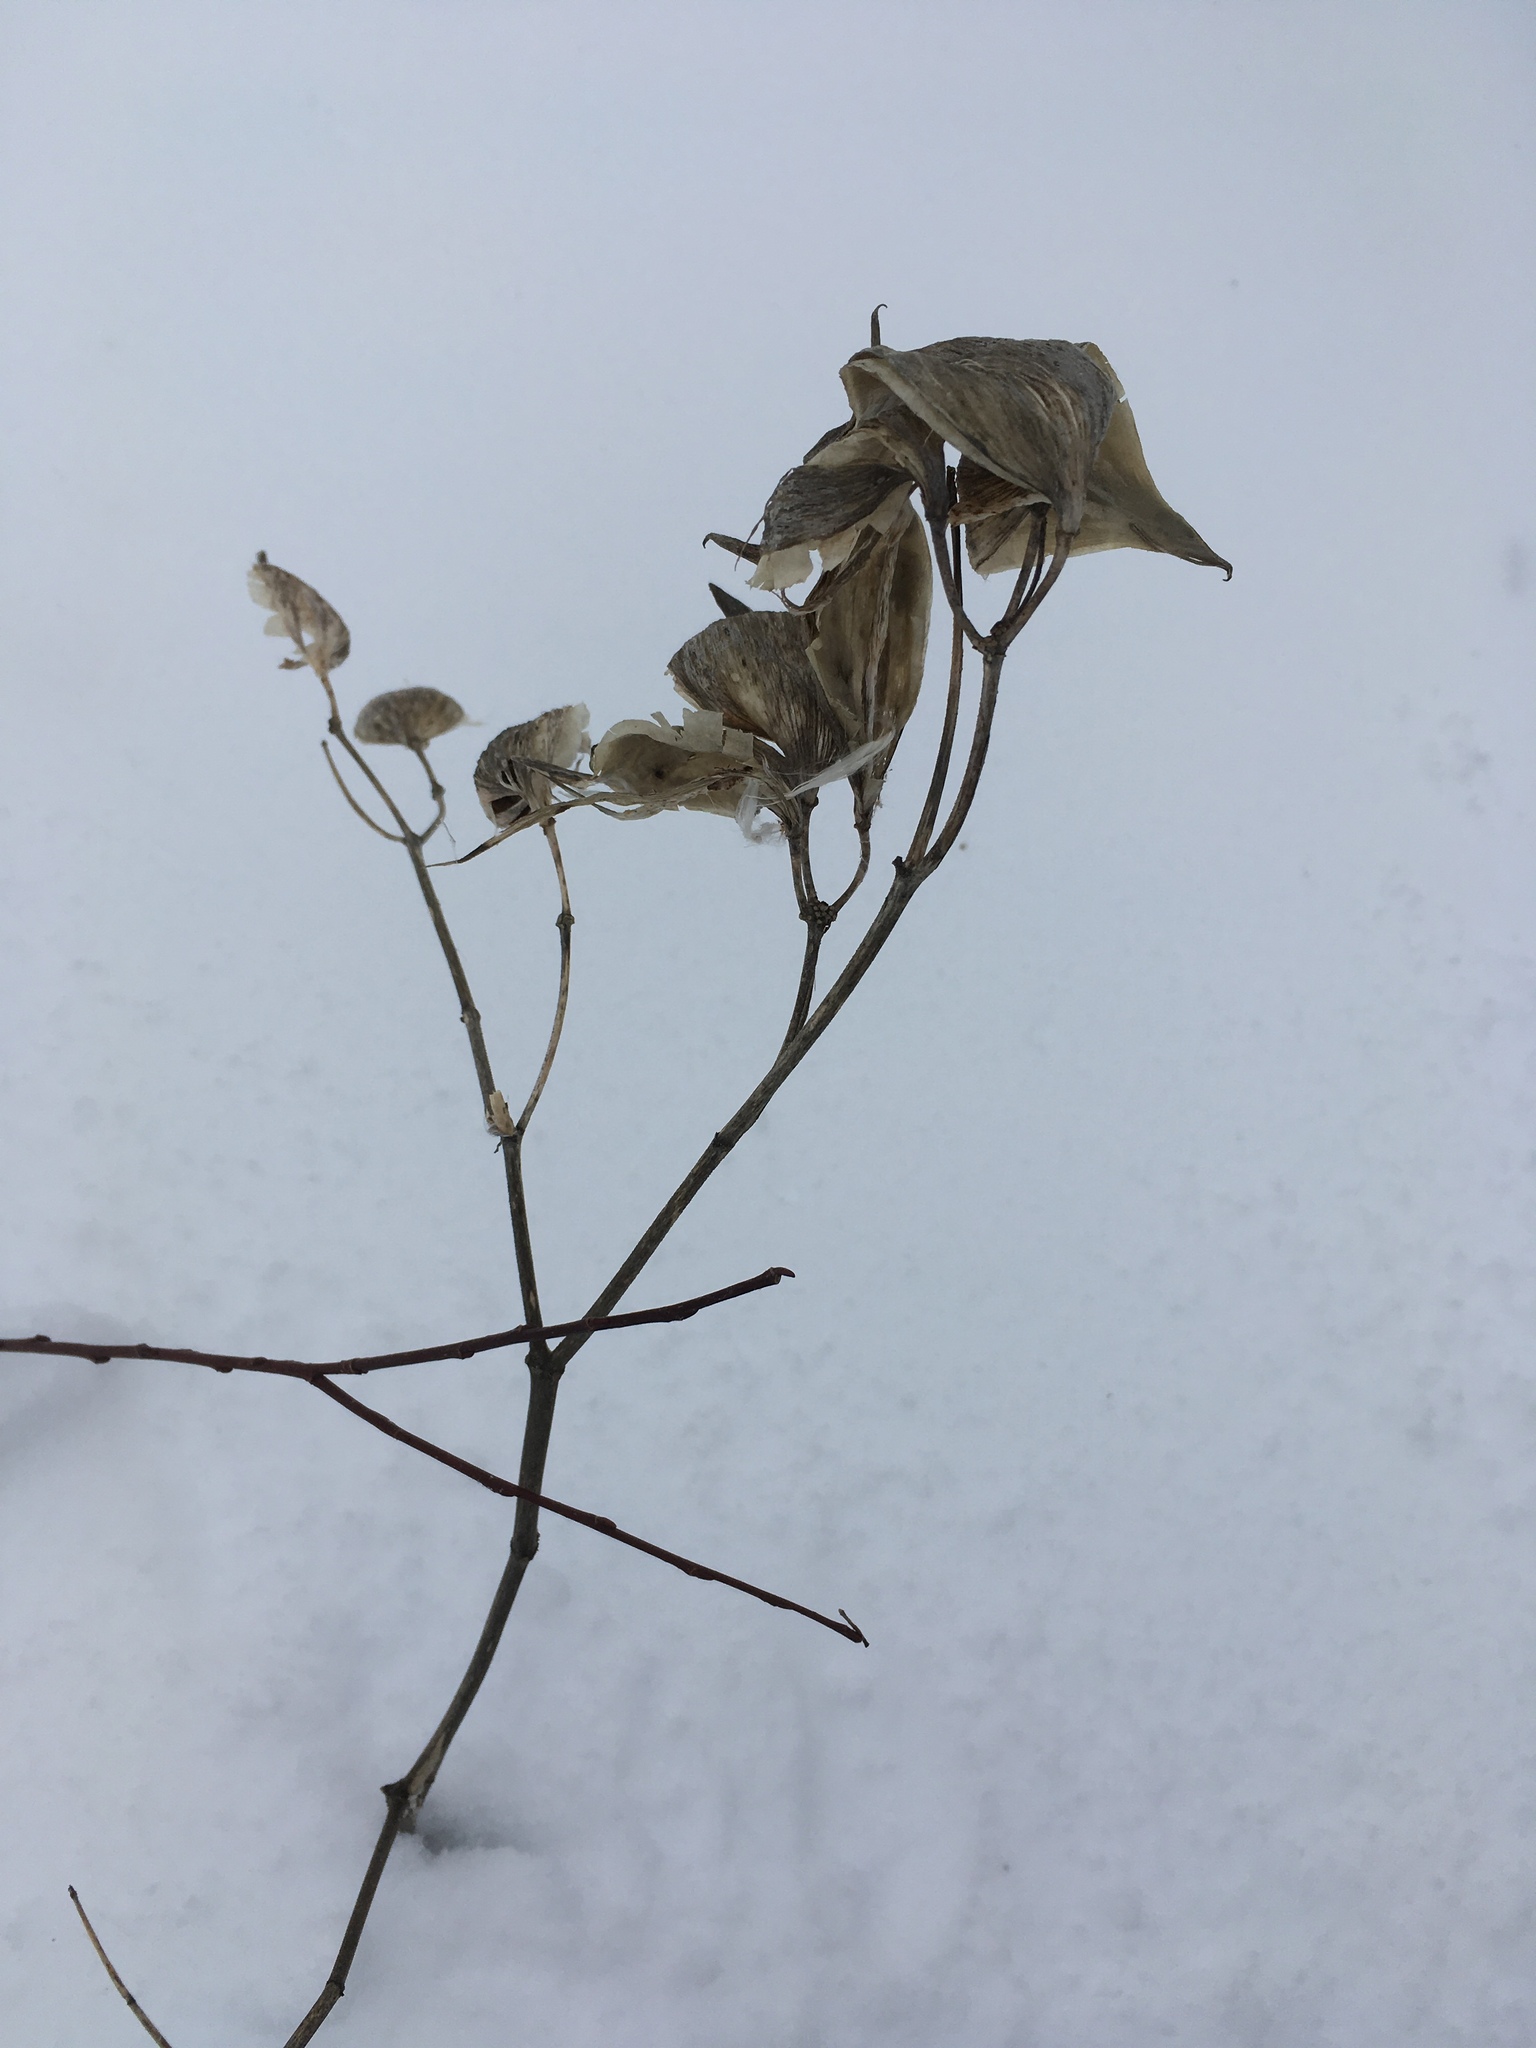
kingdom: Plantae
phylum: Tracheophyta
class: Magnoliopsida
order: Gentianales
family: Apocynaceae
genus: Asclepias
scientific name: Asclepias incarnata
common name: Swamp milkweed
